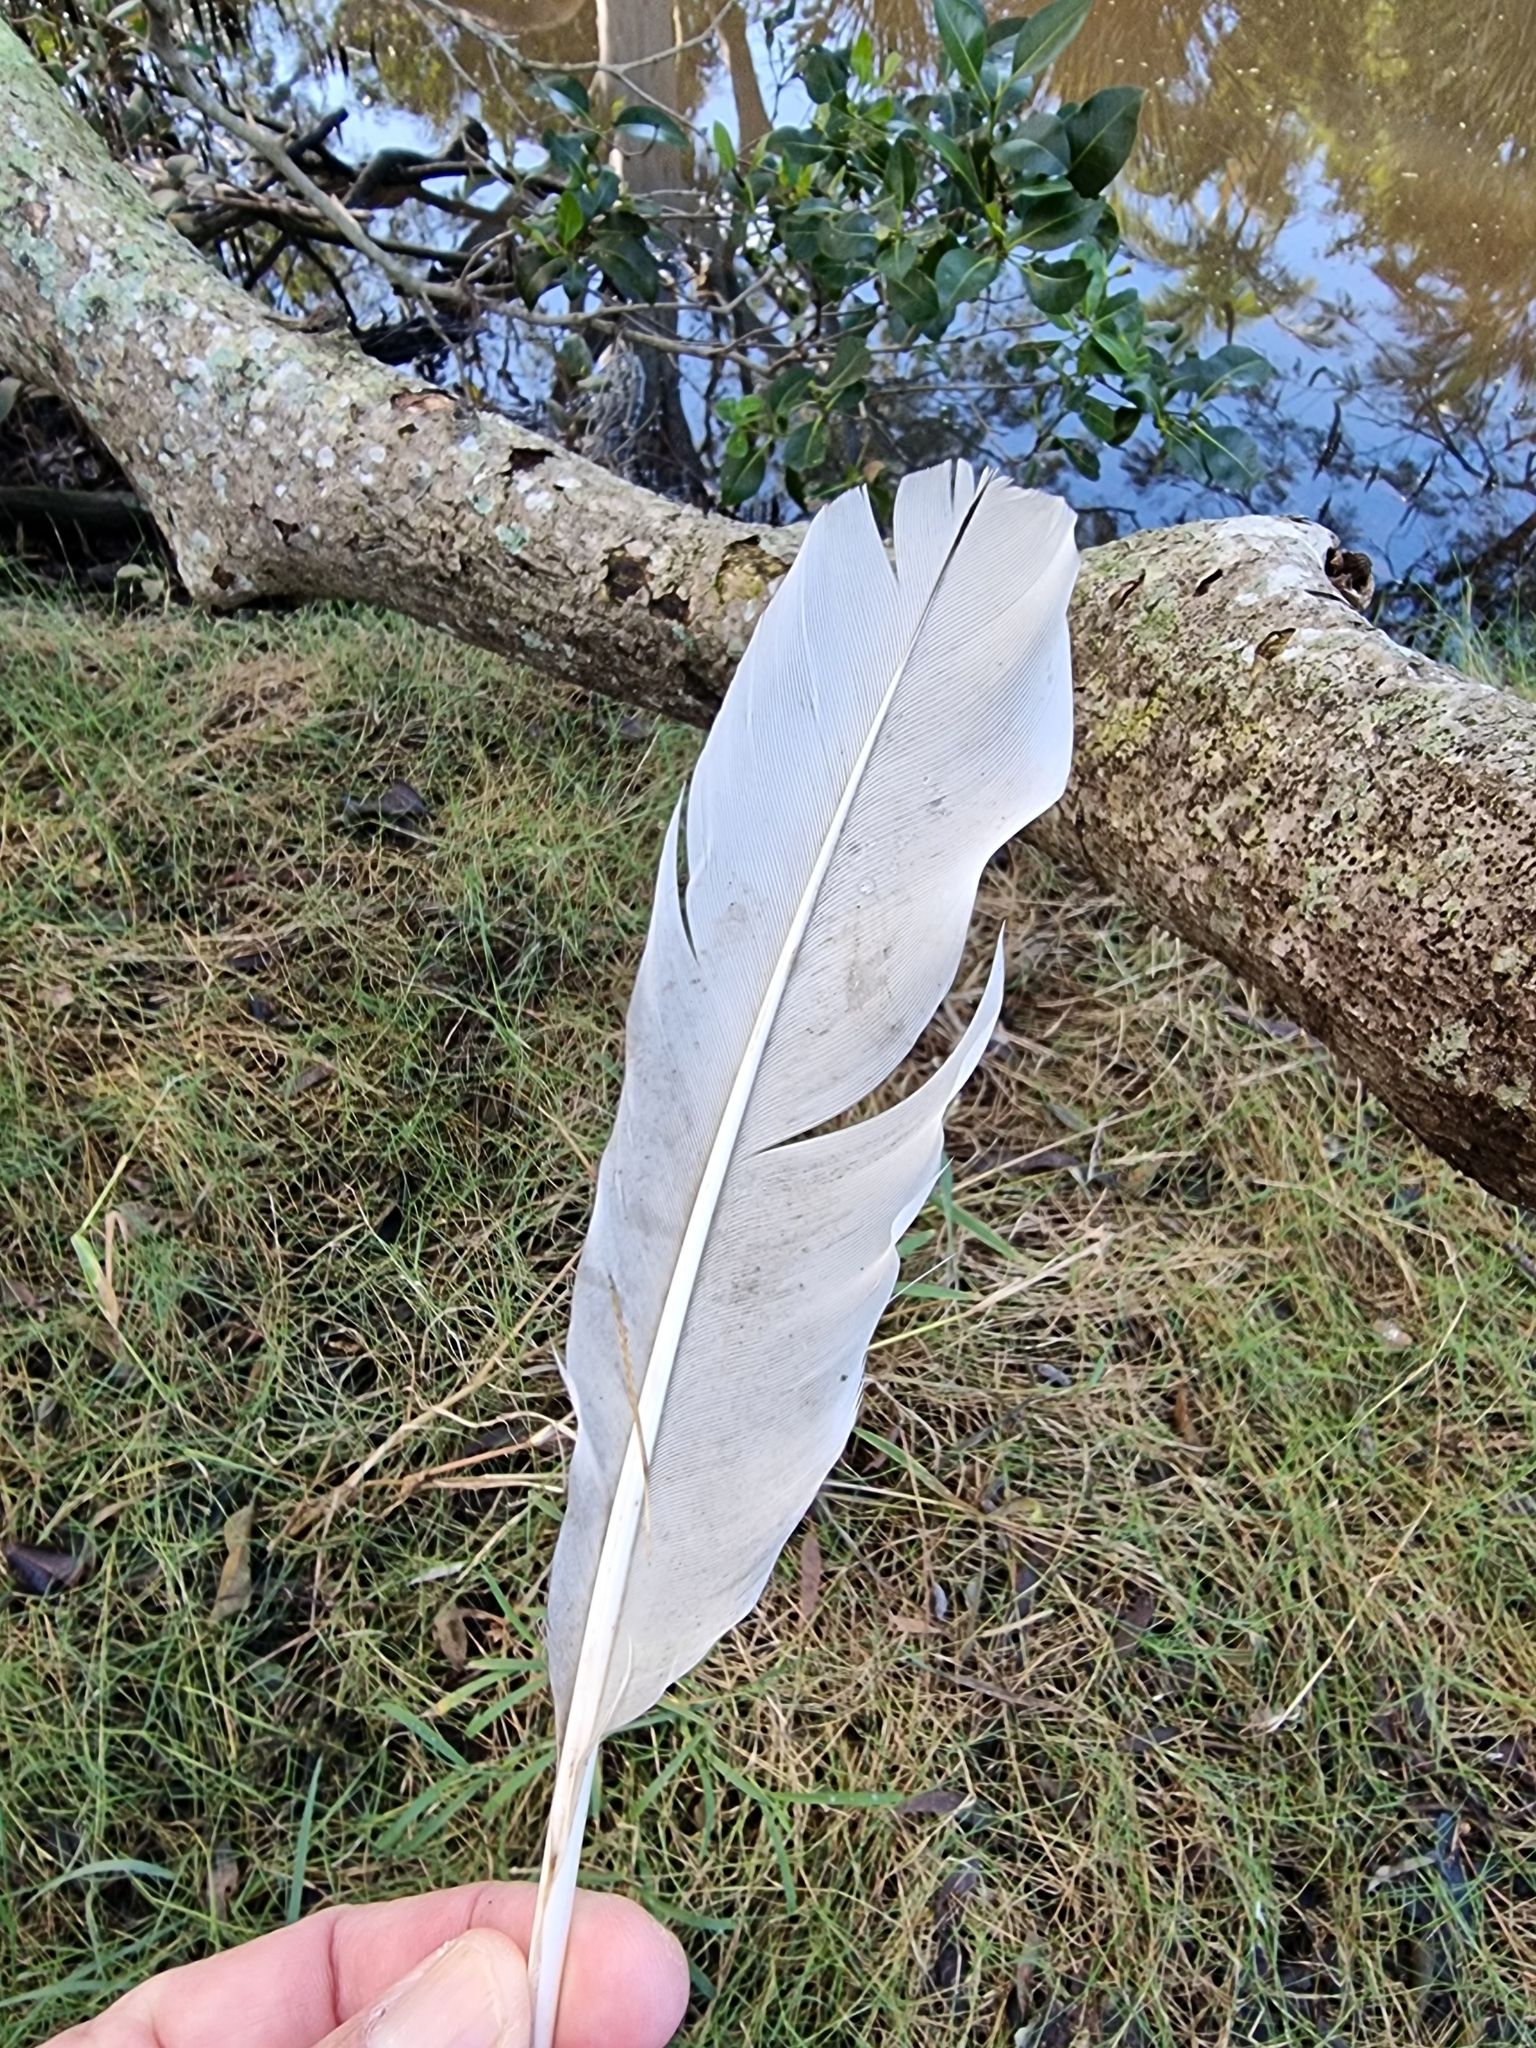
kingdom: Animalia
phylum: Chordata
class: Aves
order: Pelecaniformes
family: Threskiornithidae
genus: Threskiornis
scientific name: Threskiornis molucca
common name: Australian white ibis
